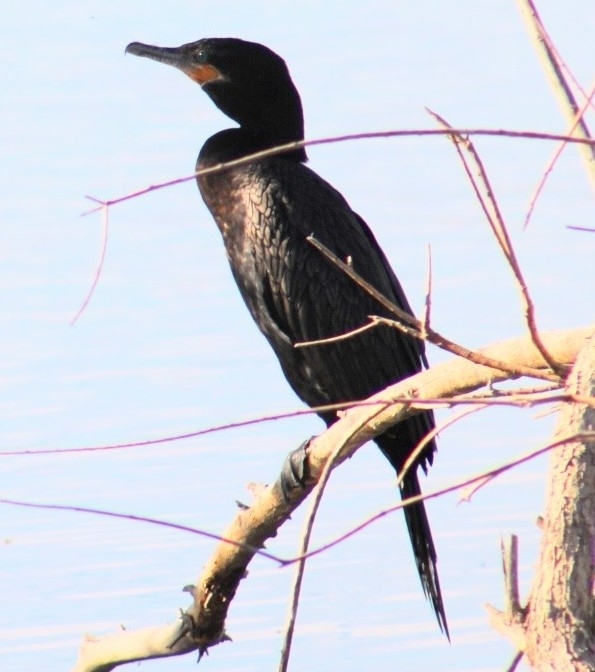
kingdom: Animalia
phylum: Chordata
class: Aves
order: Suliformes
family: Phalacrocoracidae
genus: Phalacrocorax
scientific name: Phalacrocorax brasilianus
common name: Neotropic cormorant
